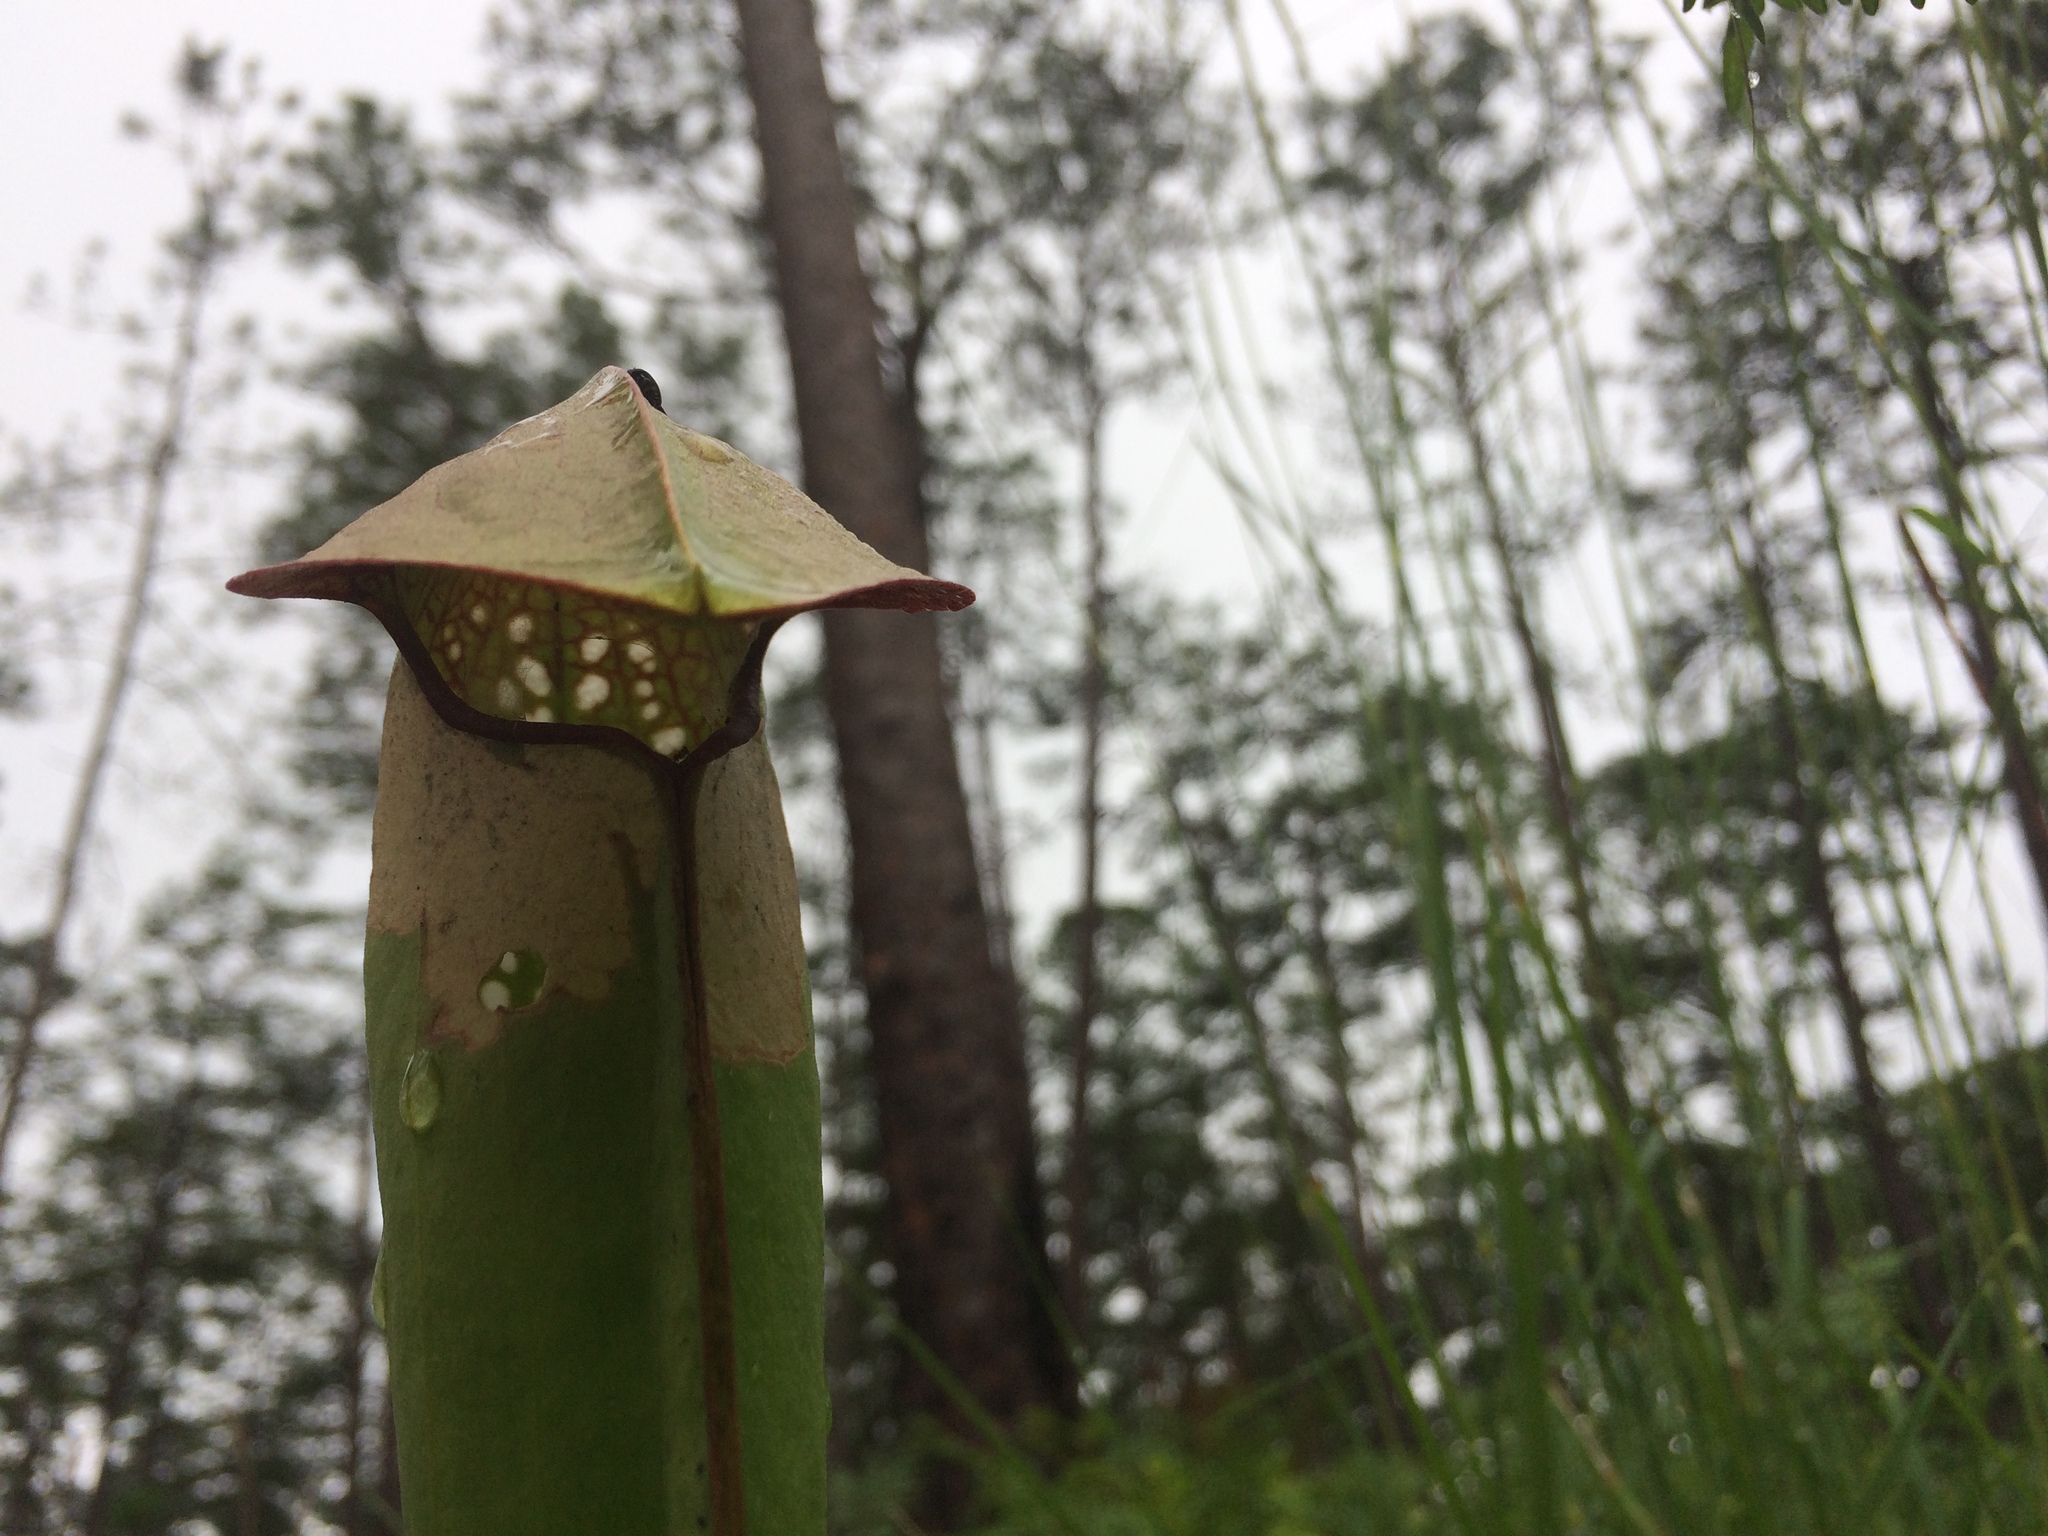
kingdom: Plantae
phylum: Tracheophyta
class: Magnoliopsida
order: Ericales
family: Sarraceniaceae
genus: Sarracenia
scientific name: Sarracenia minor
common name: Rainhat-trumpet
